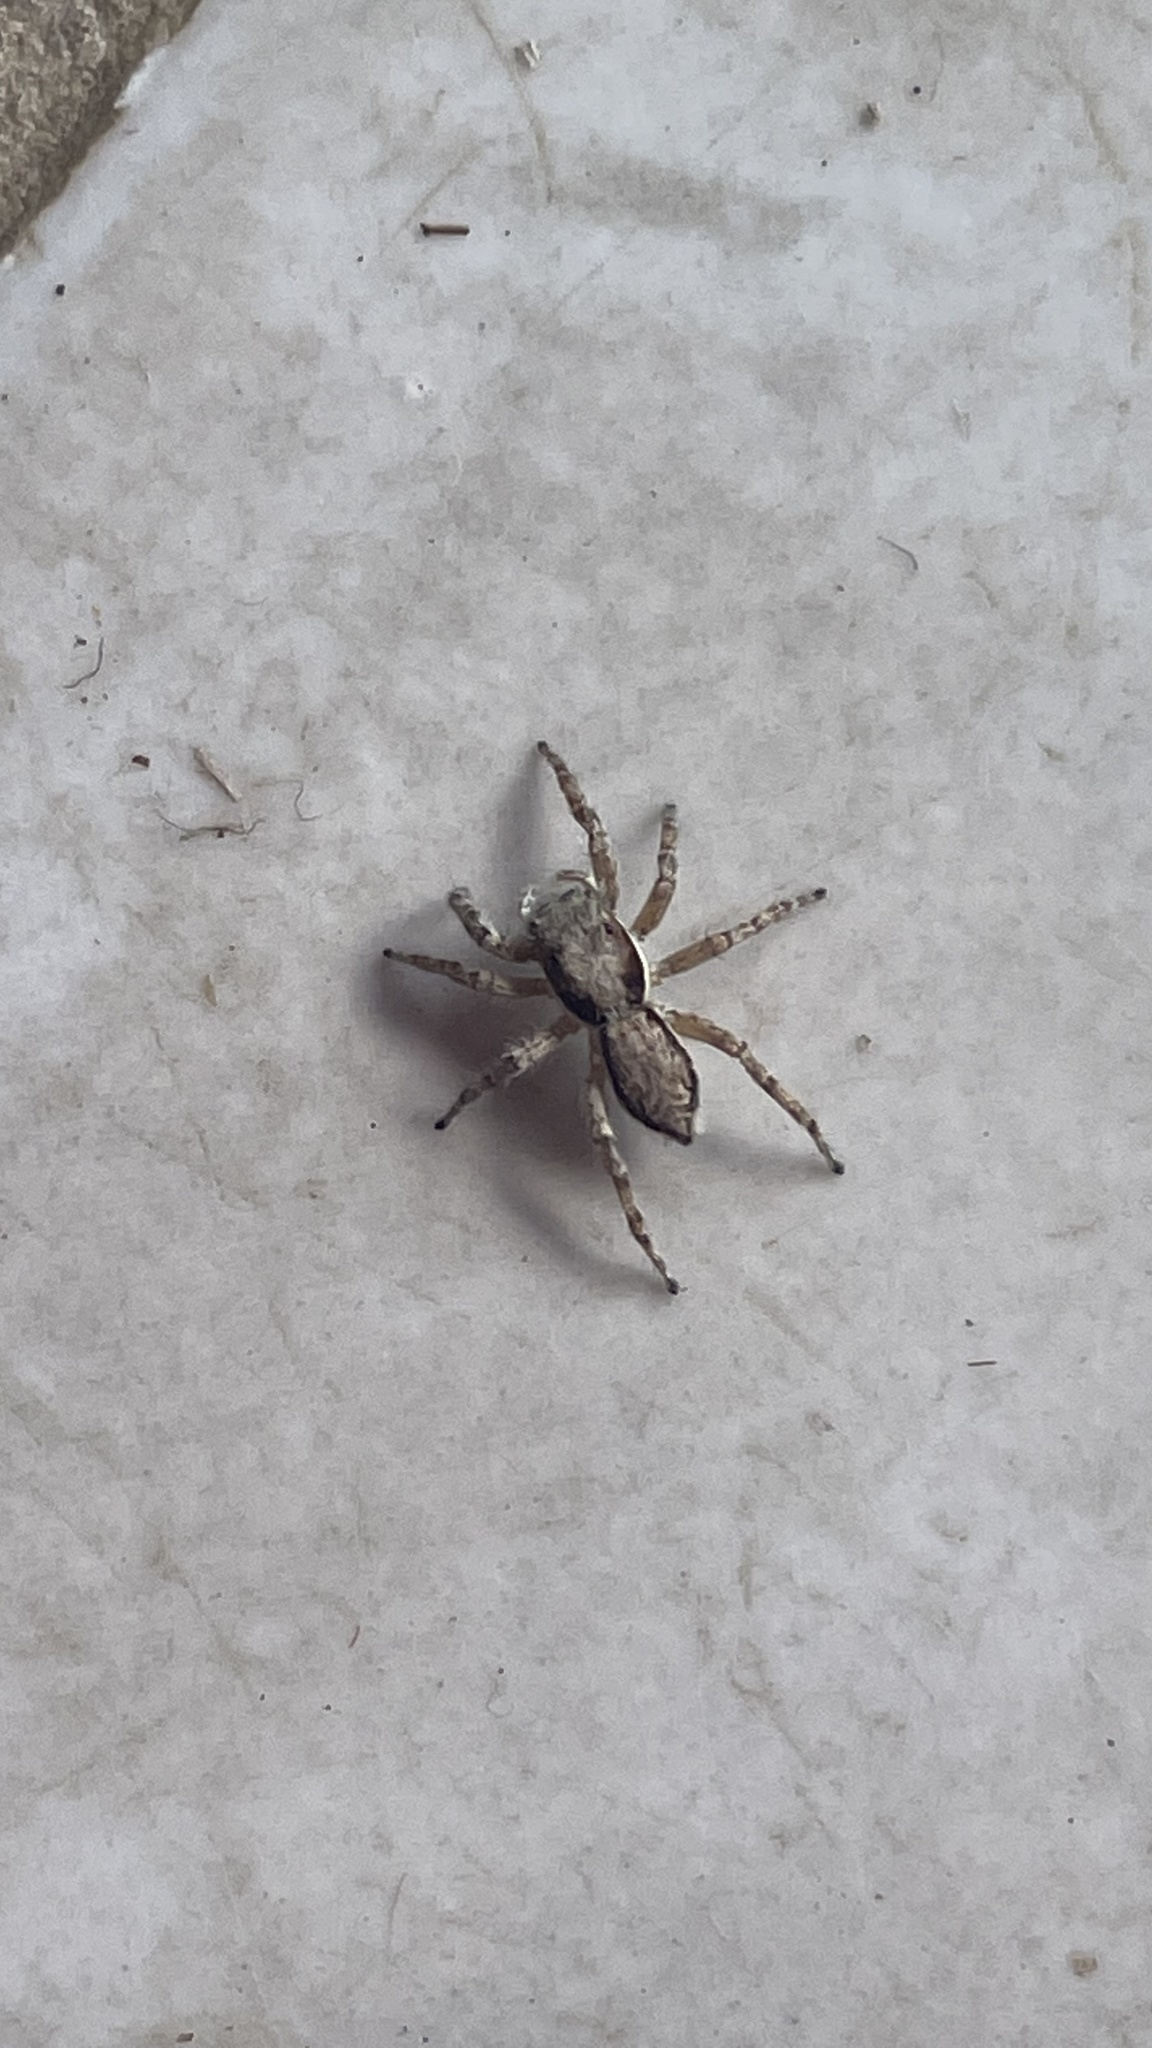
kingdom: Animalia
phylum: Arthropoda
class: Arachnida
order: Araneae
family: Salticidae
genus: Menemerus
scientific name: Menemerus bivittatus
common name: Gray wall jumper
